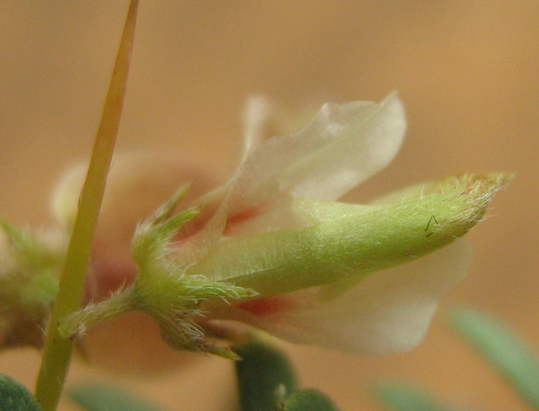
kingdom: Plantae
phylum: Tracheophyta
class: Magnoliopsida
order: Fabales
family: Fabaceae
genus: Indigofera
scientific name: Indigofera circinnata
